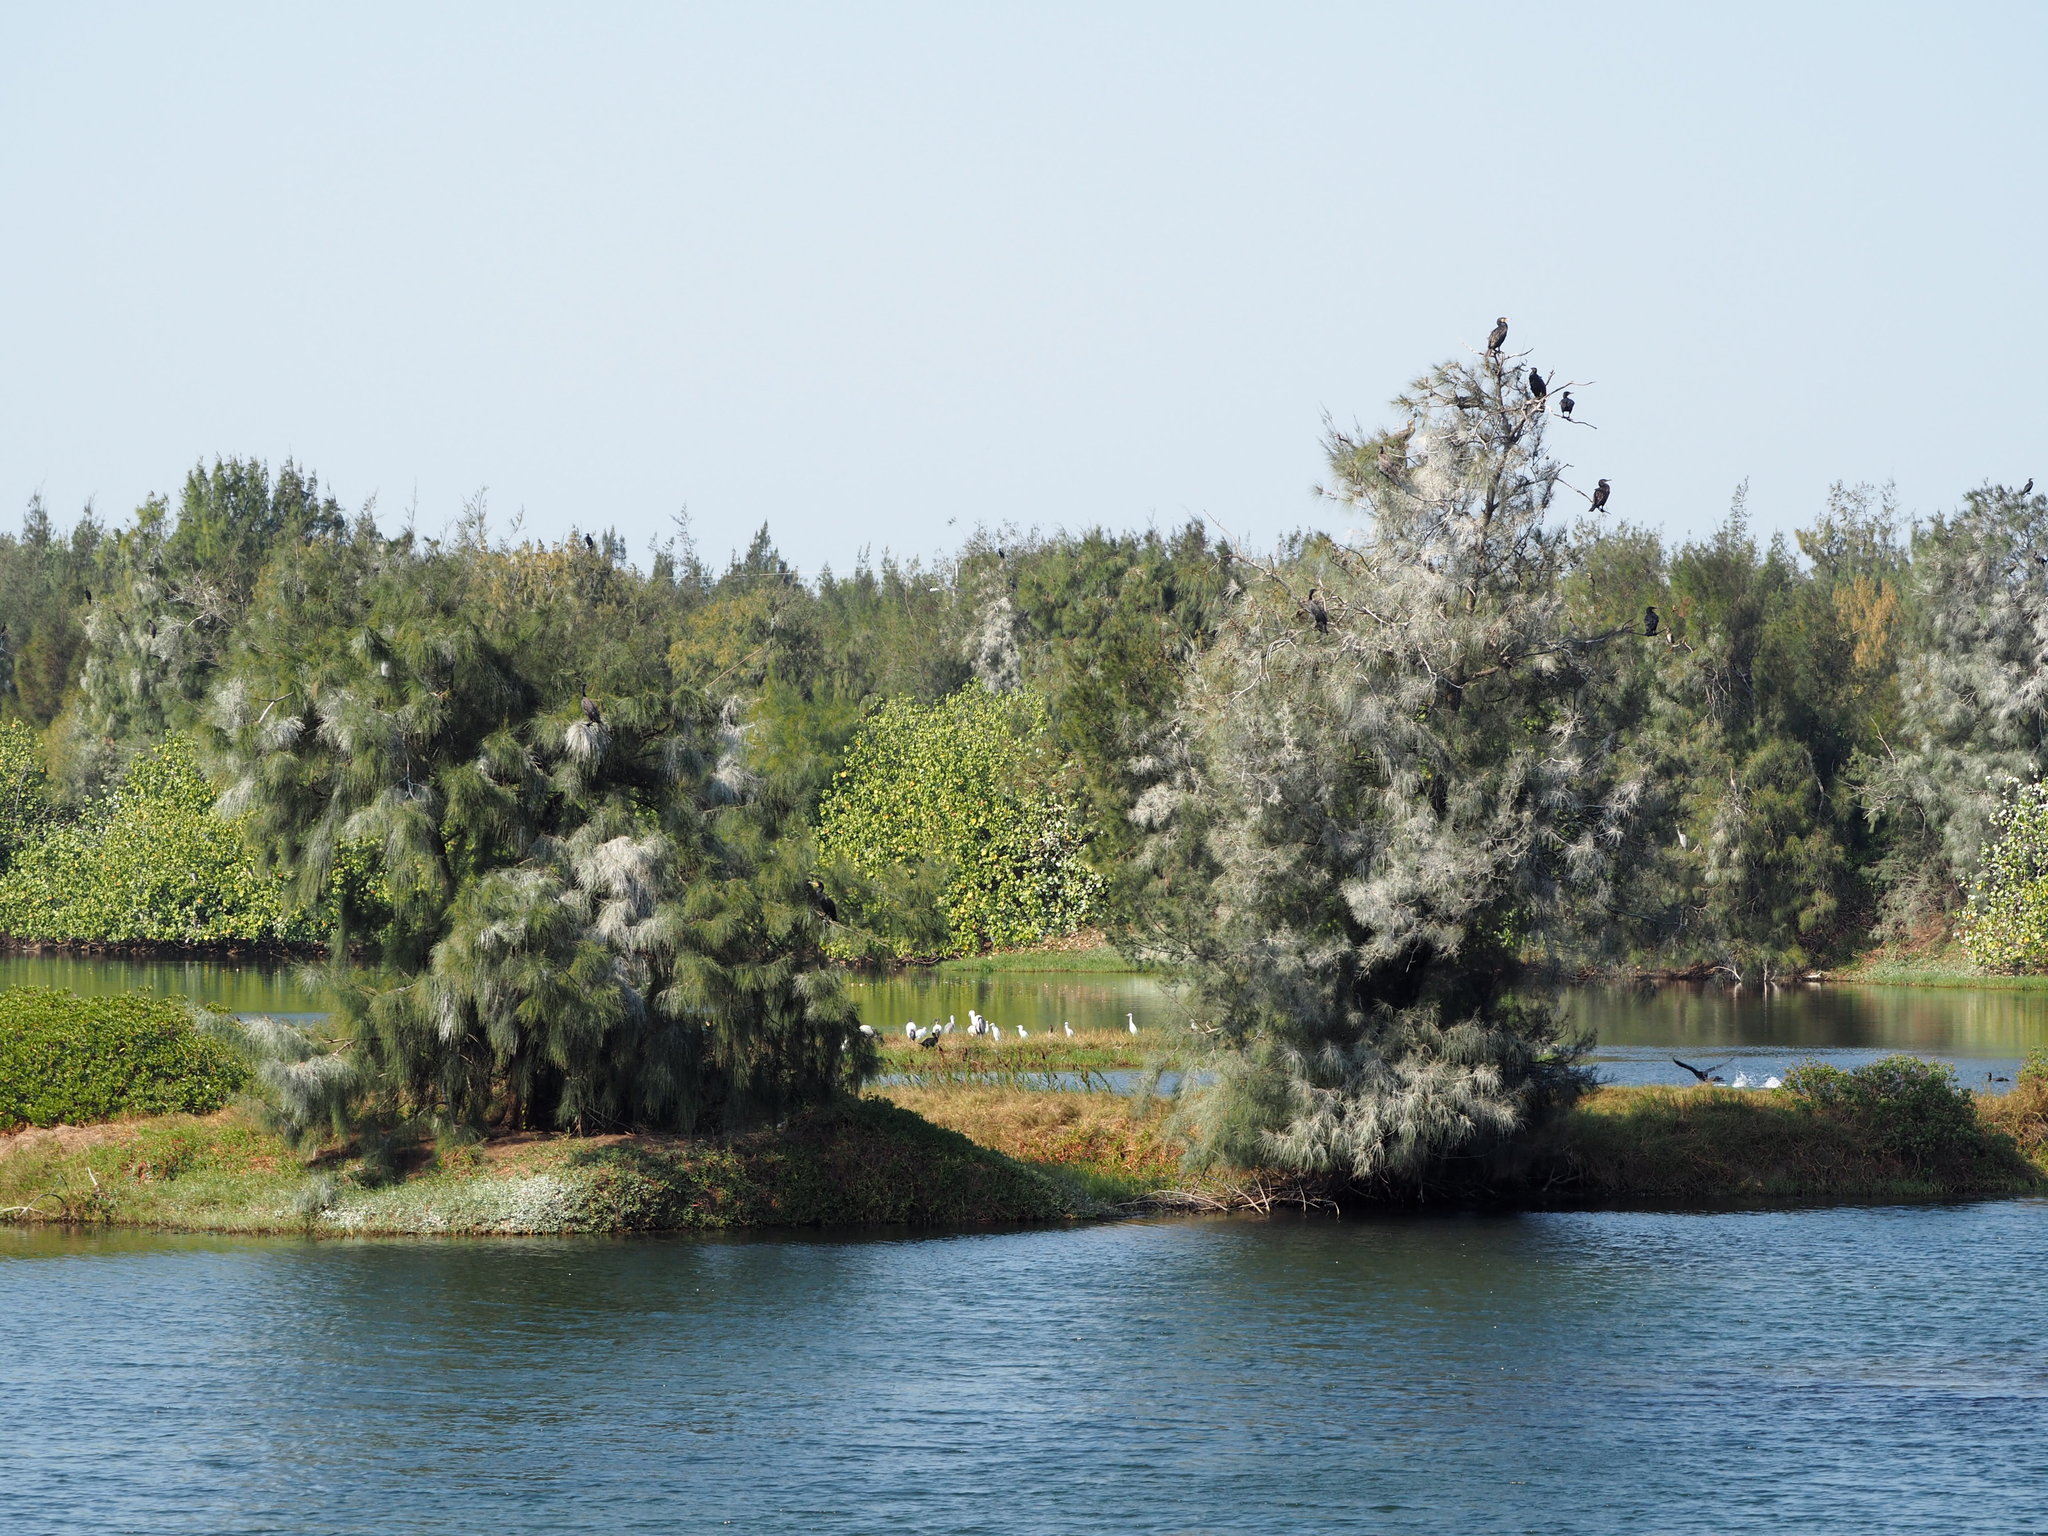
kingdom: Plantae
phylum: Tracheophyta
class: Magnoliopsida
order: Fagales
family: Casuarinaceae
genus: Casuarina
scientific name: Casuarina equisetifolia
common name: Beach sheoak
